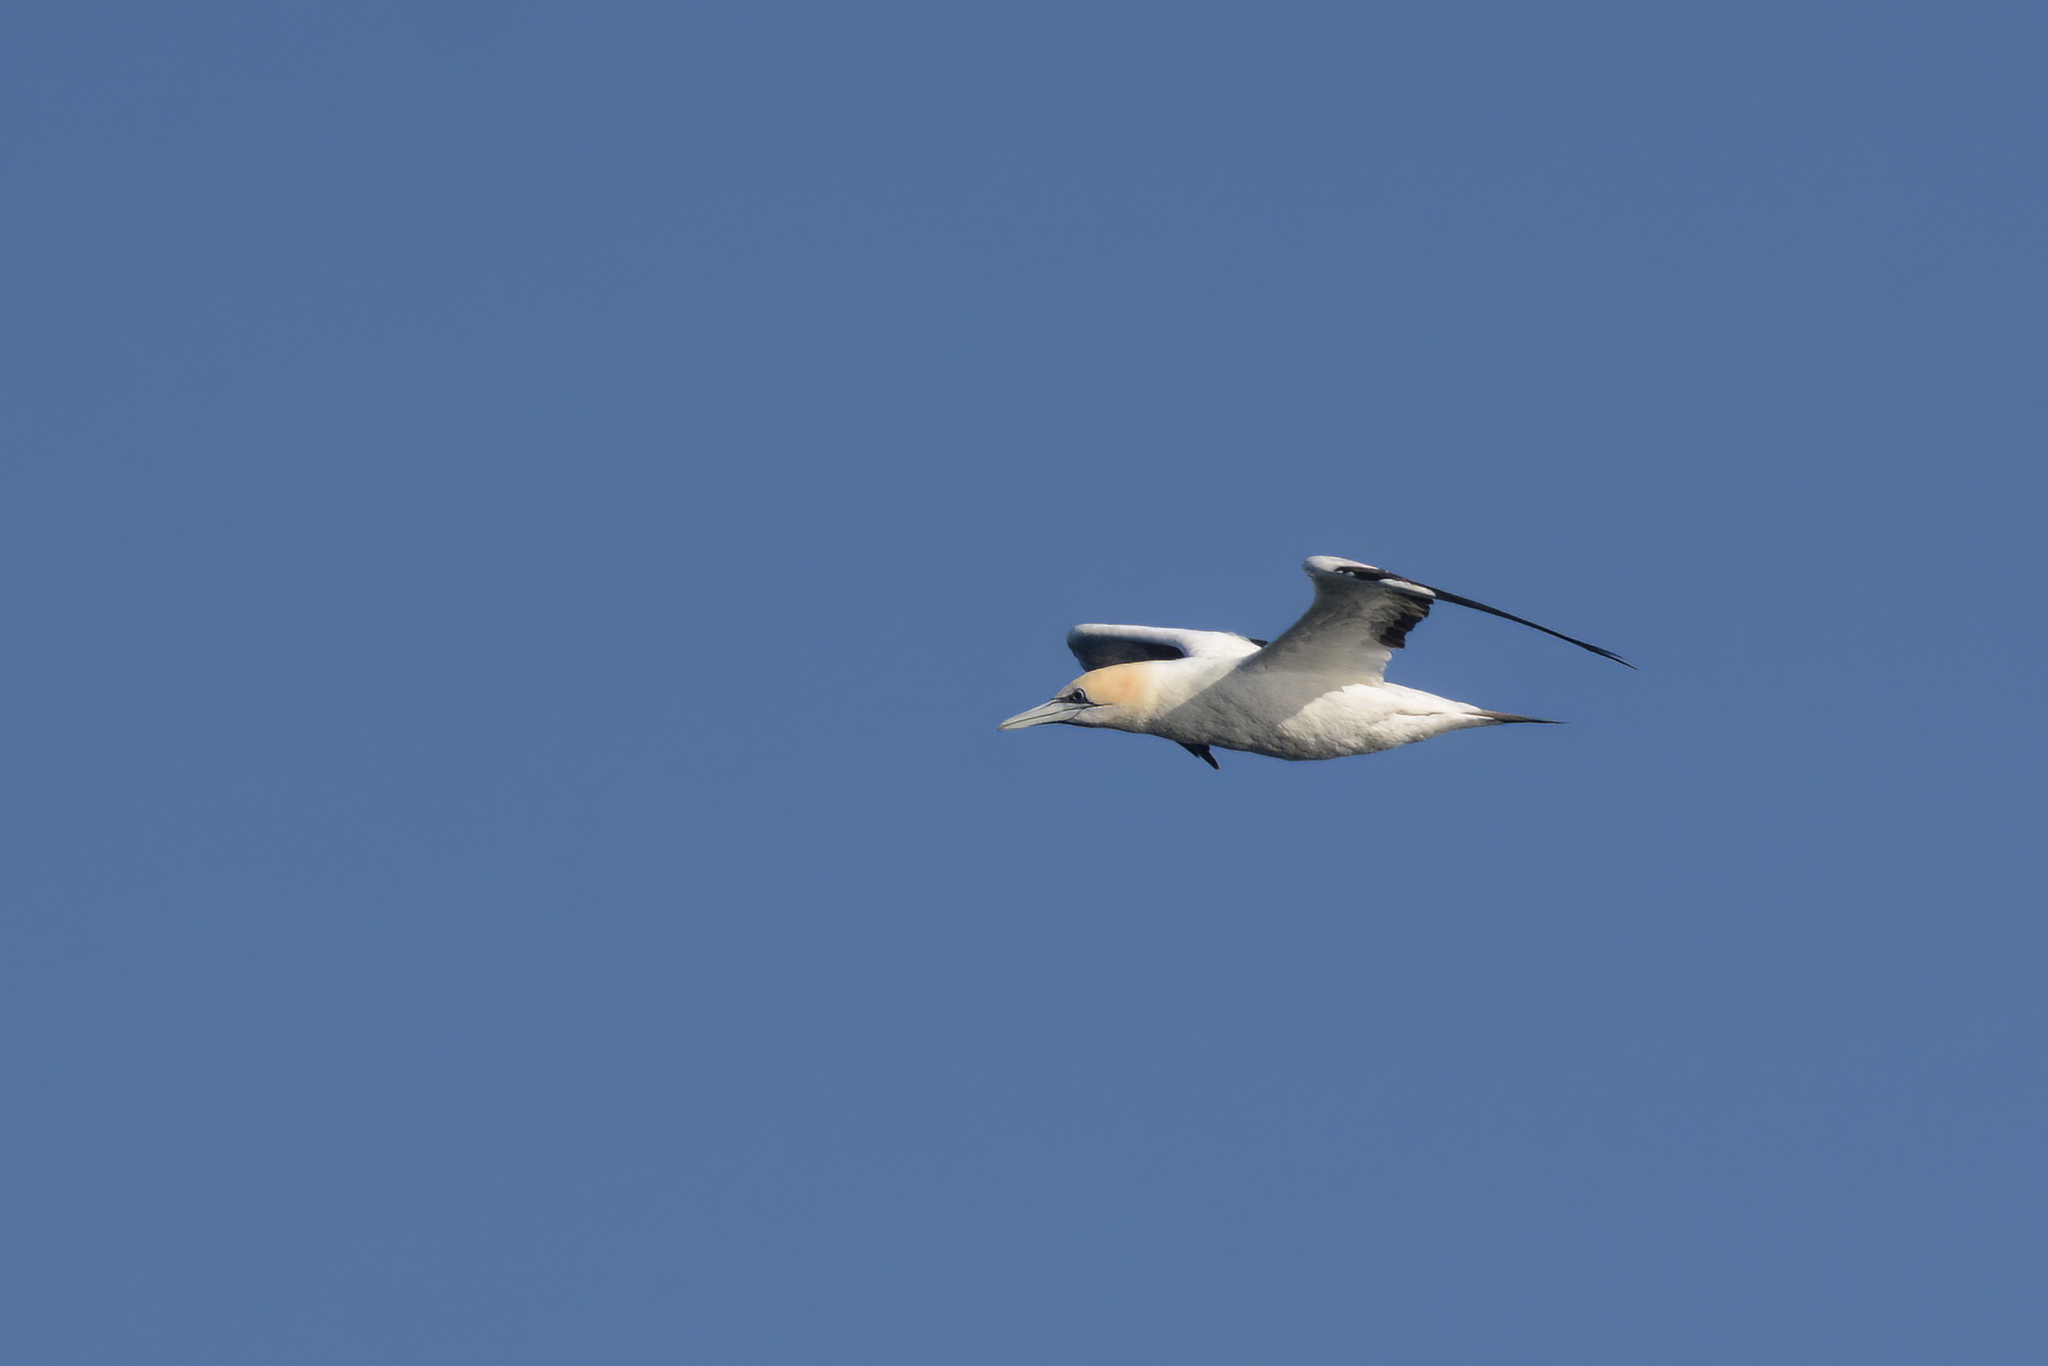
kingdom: Animalia
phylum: Chordata
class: Aves
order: Suliformes
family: Sulidae
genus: Morus
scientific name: Morus serrator
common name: Australasian gannet
